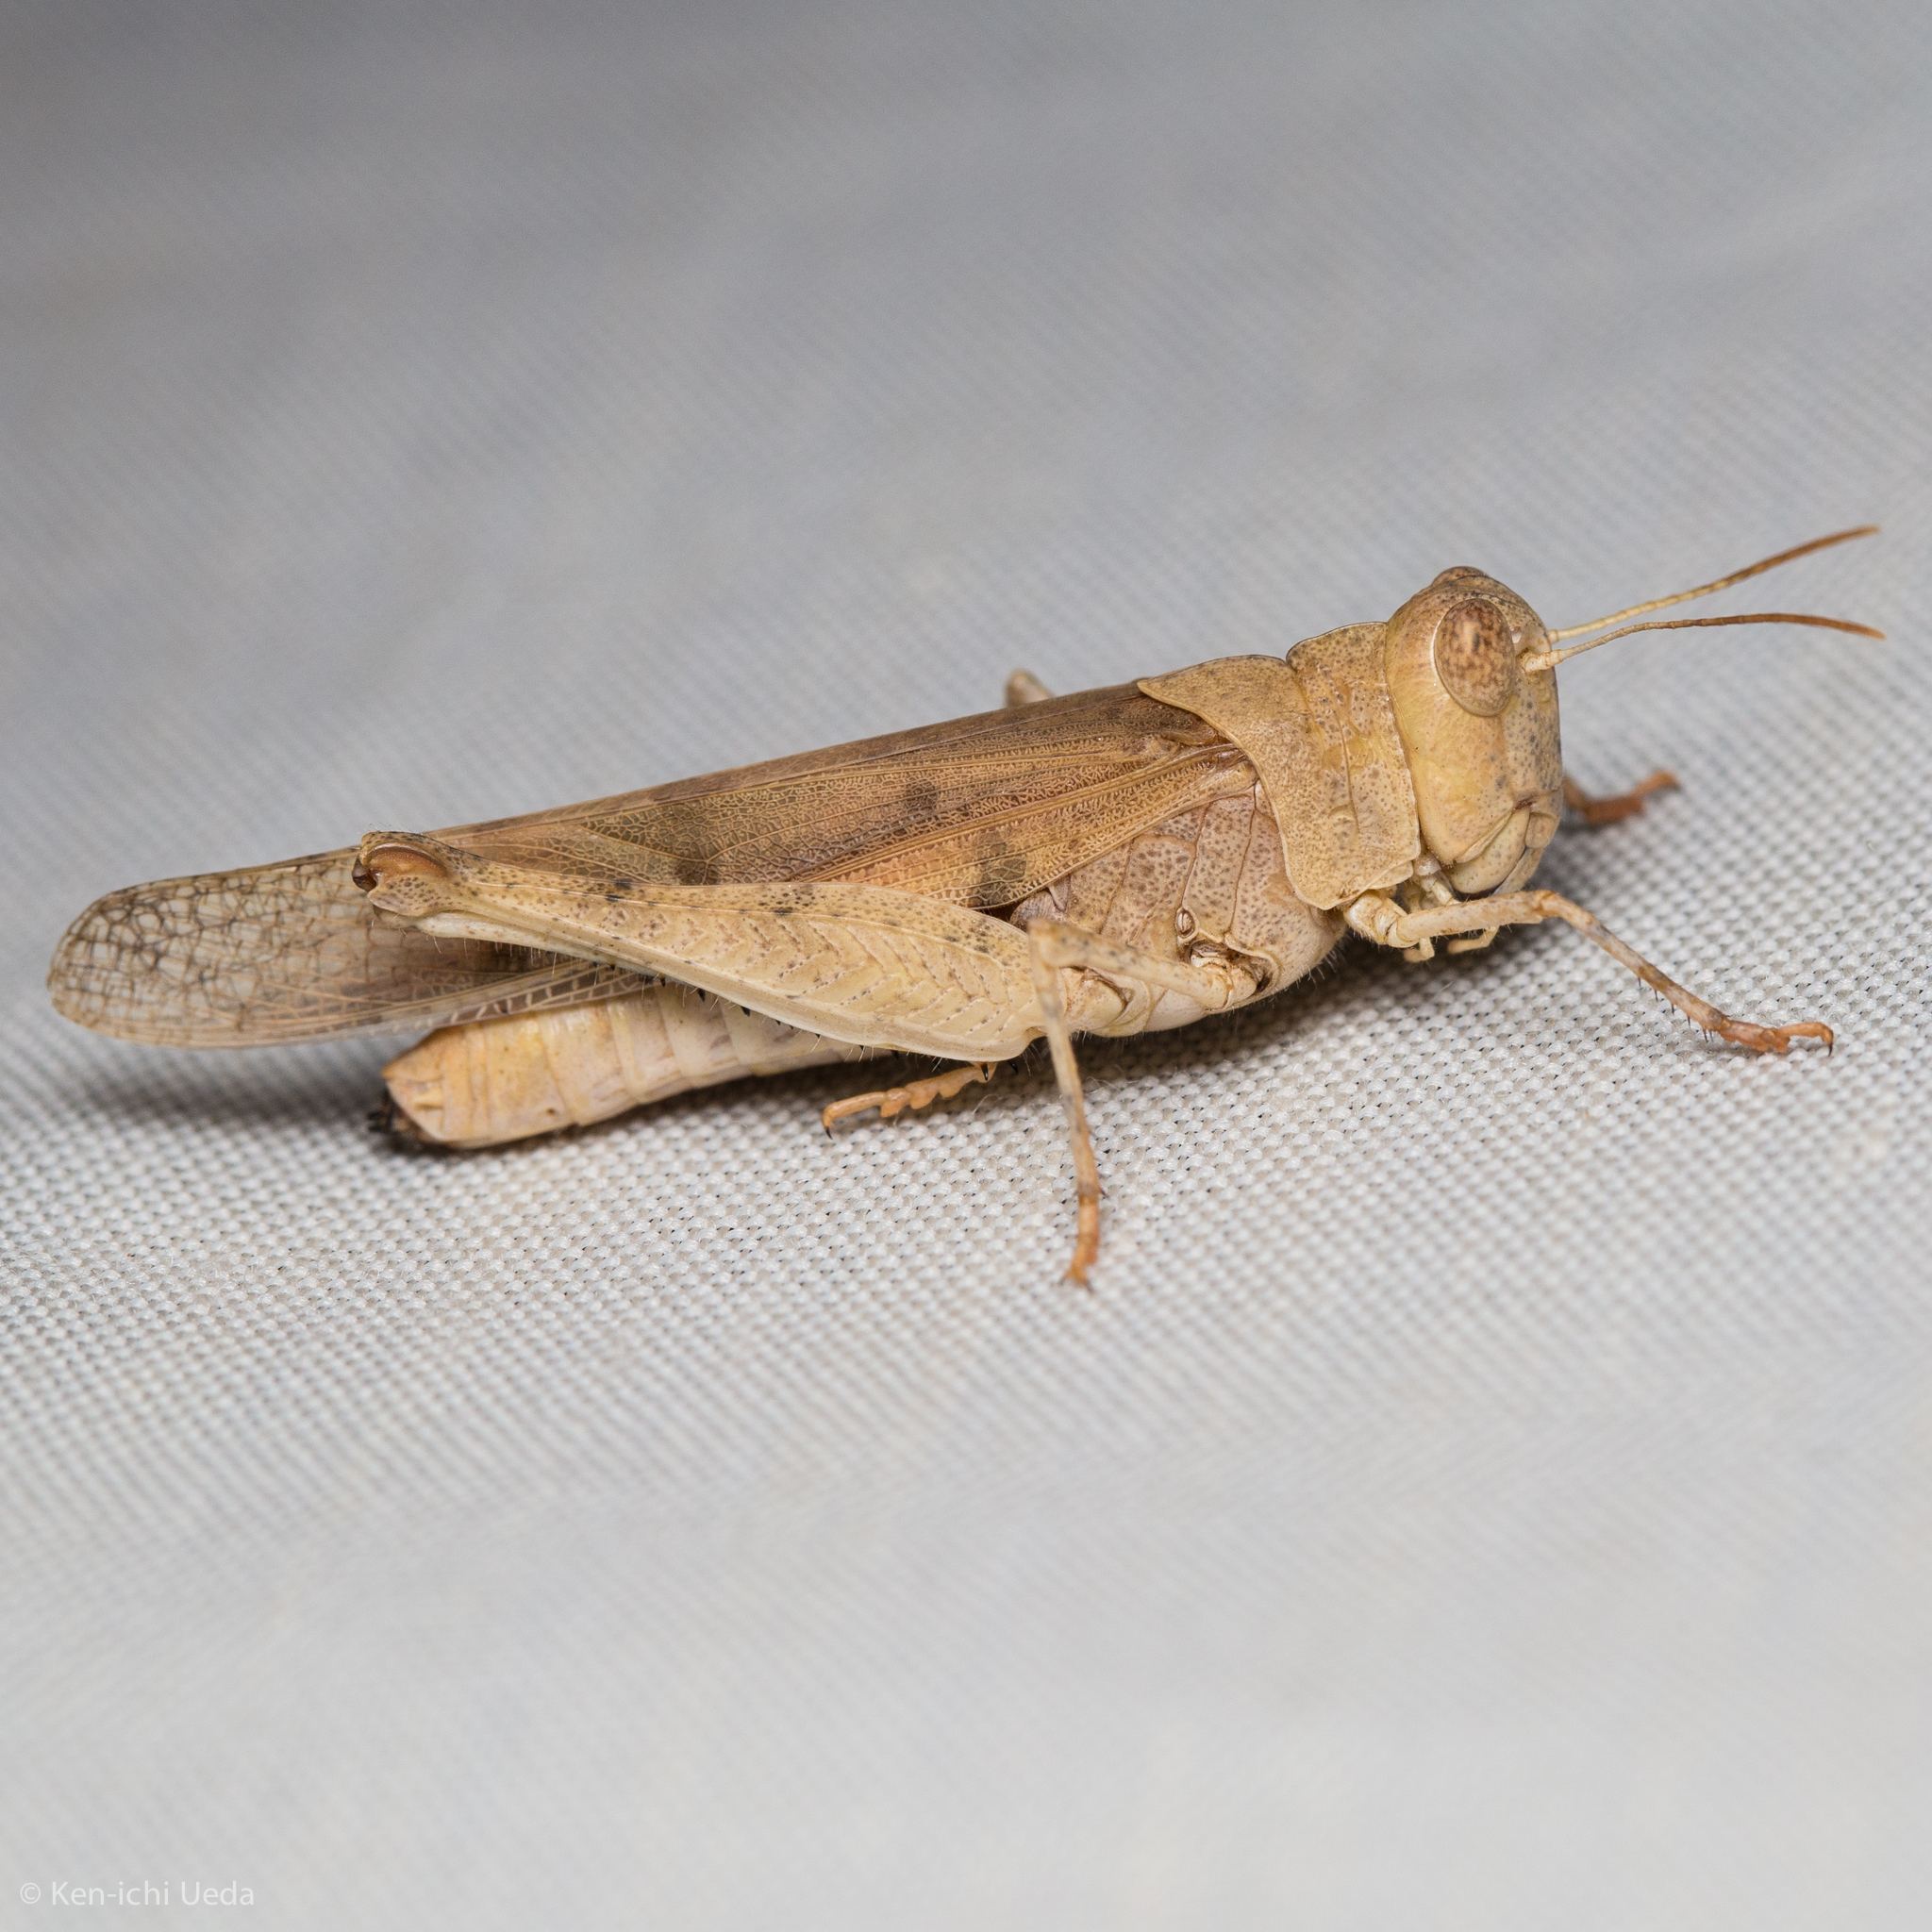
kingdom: Animalia
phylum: Arthropoda
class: Insecta
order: Orthoptera
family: Acrididae
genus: Dissosteira
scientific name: Dissosteira pictipennis
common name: California rose-winged grasshopper
